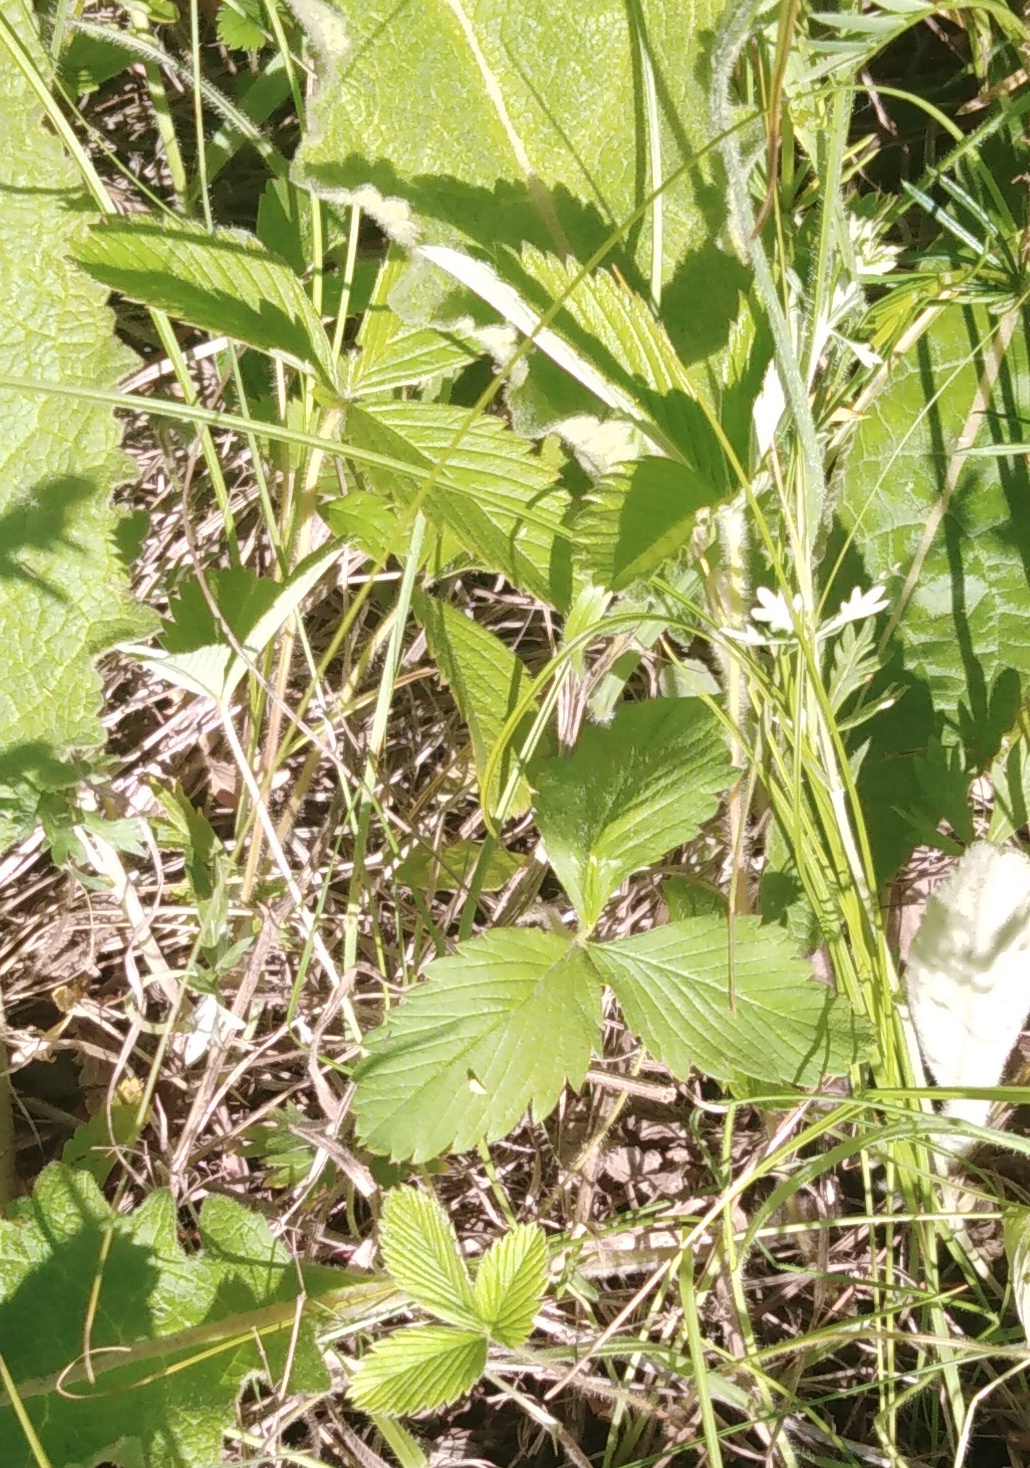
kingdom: Plantae
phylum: Tracheophyta
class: Magnoliopsida
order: Rosales
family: Rosaceae
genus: Fragaria
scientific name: Fragaria viridis
